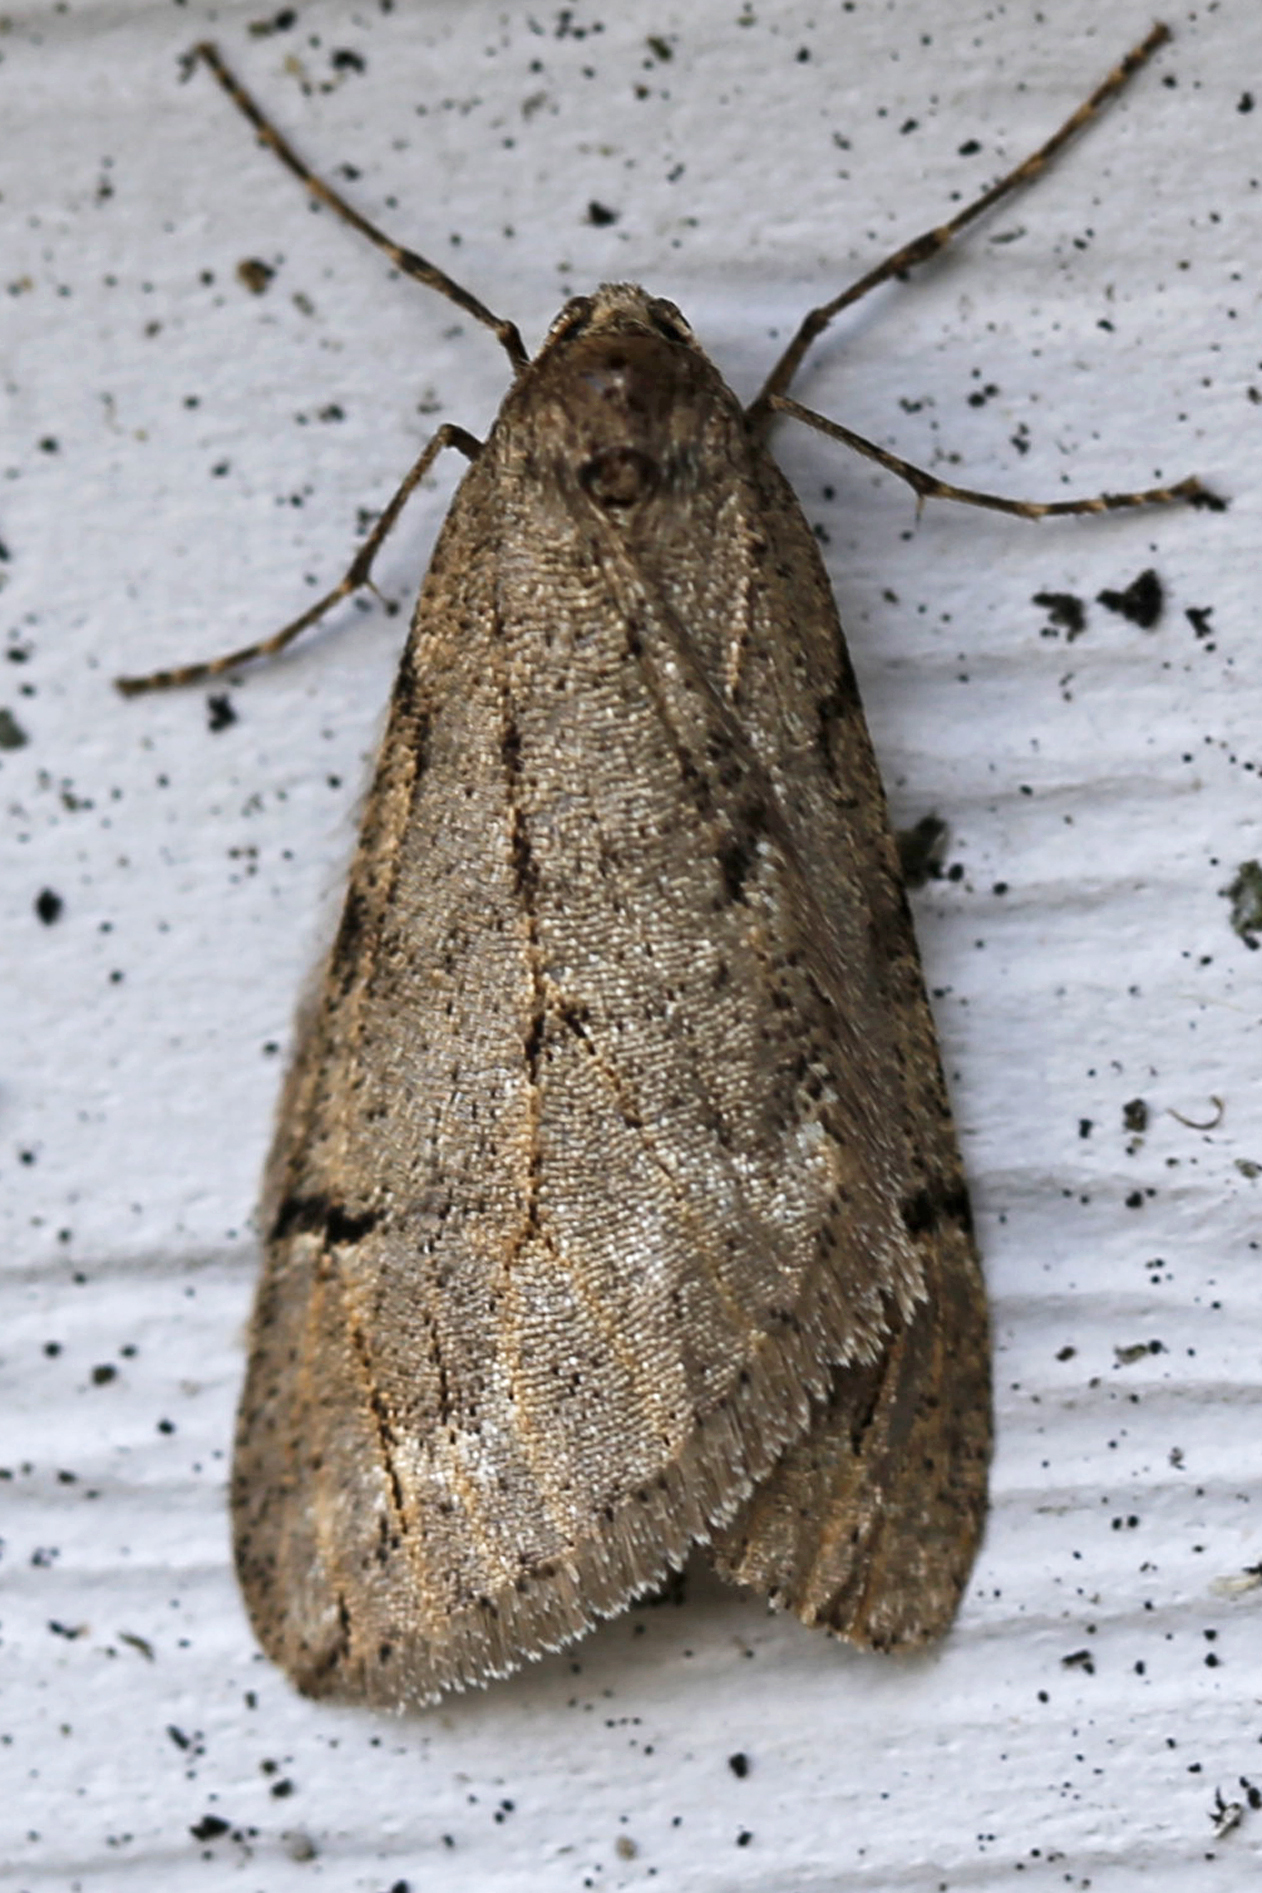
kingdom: Animalia
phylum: Arthropoda
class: Insecta
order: Lepidoptera
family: Geometridae
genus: Paleacrita
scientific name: Paleacrita vernata
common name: Spring cankerworm
